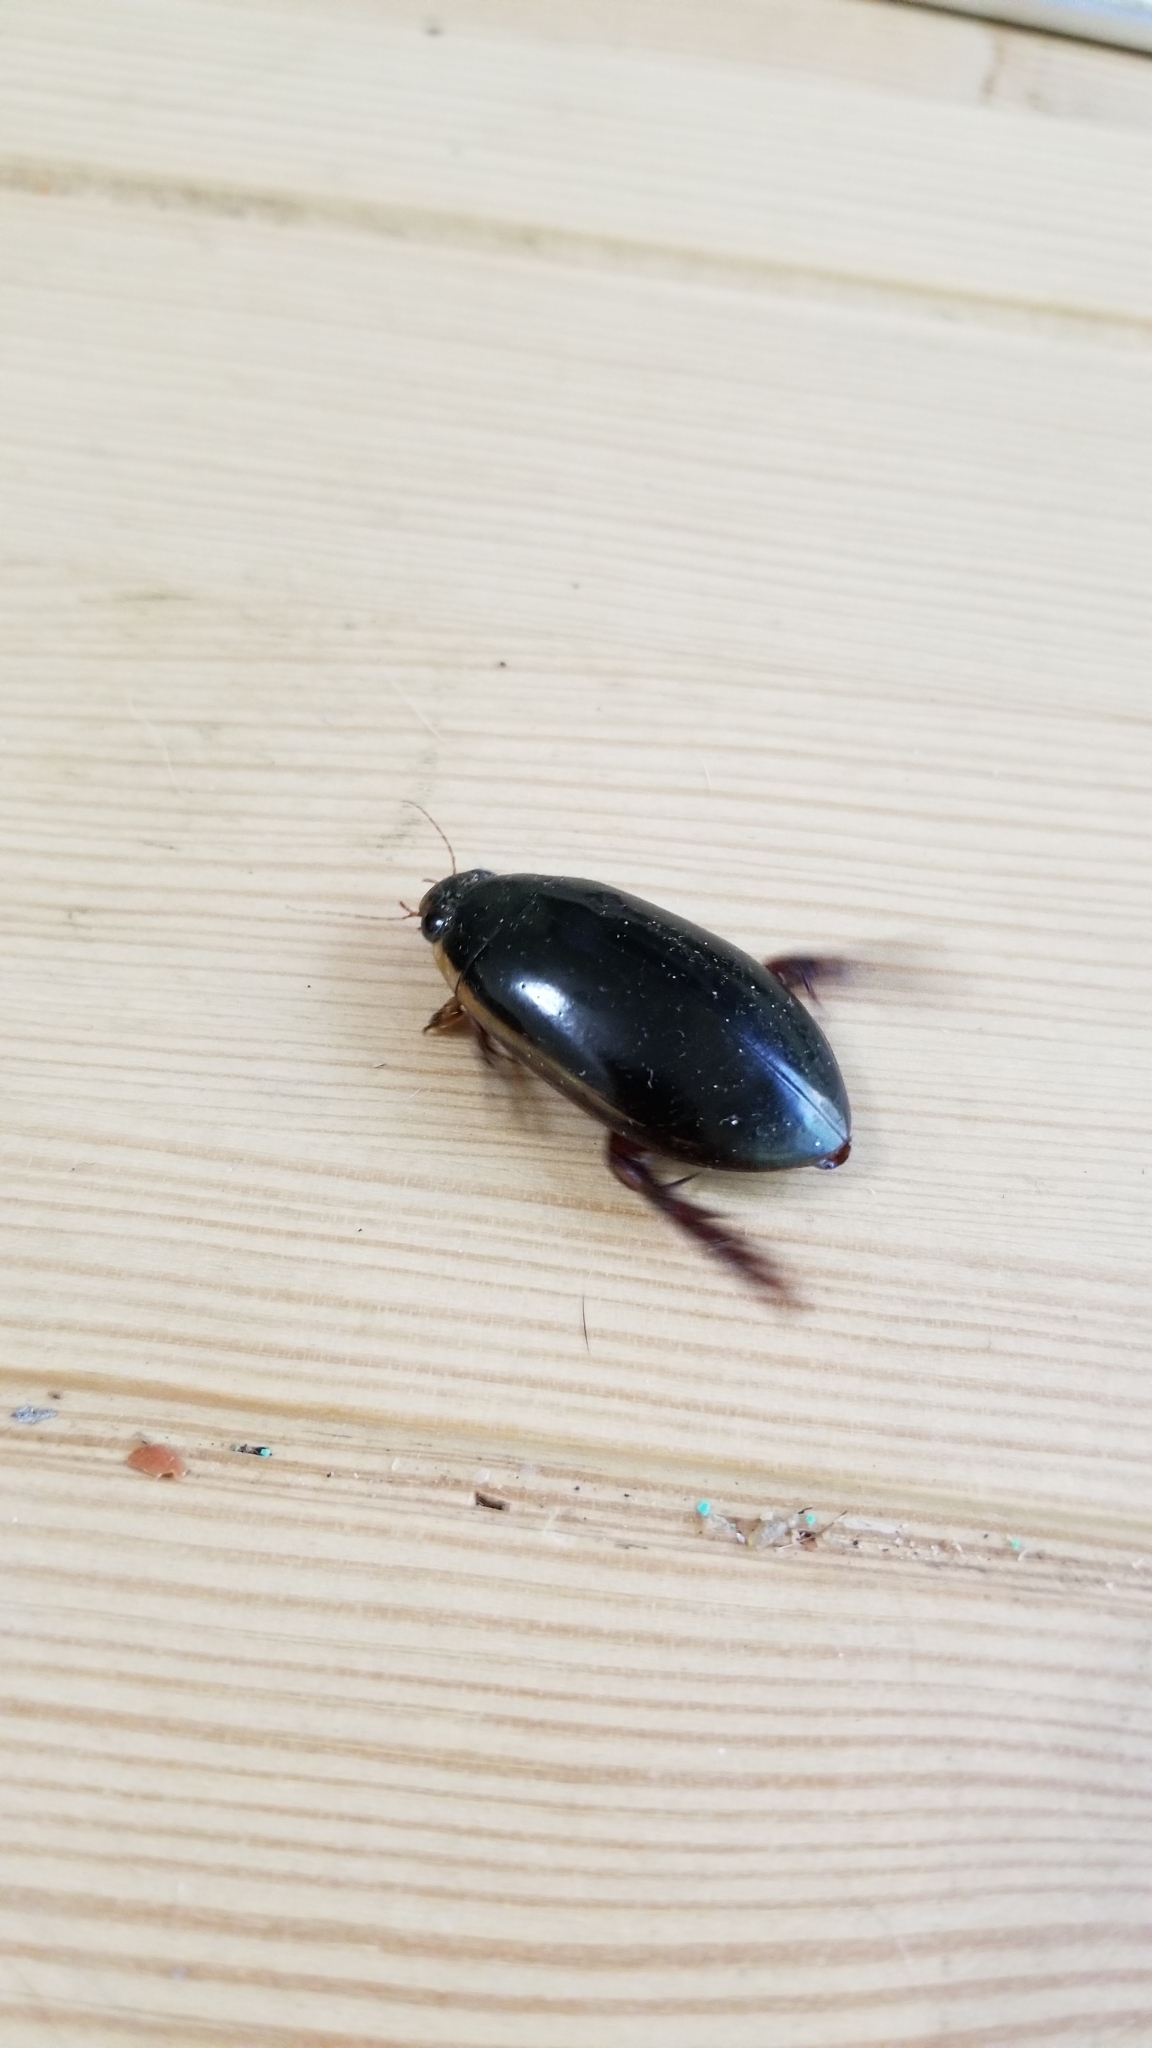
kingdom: Animalia
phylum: Arthropoda
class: Insecta
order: Coleoptera
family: Dytiscidae
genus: Cybister
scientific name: Cybister fimbriolatus
